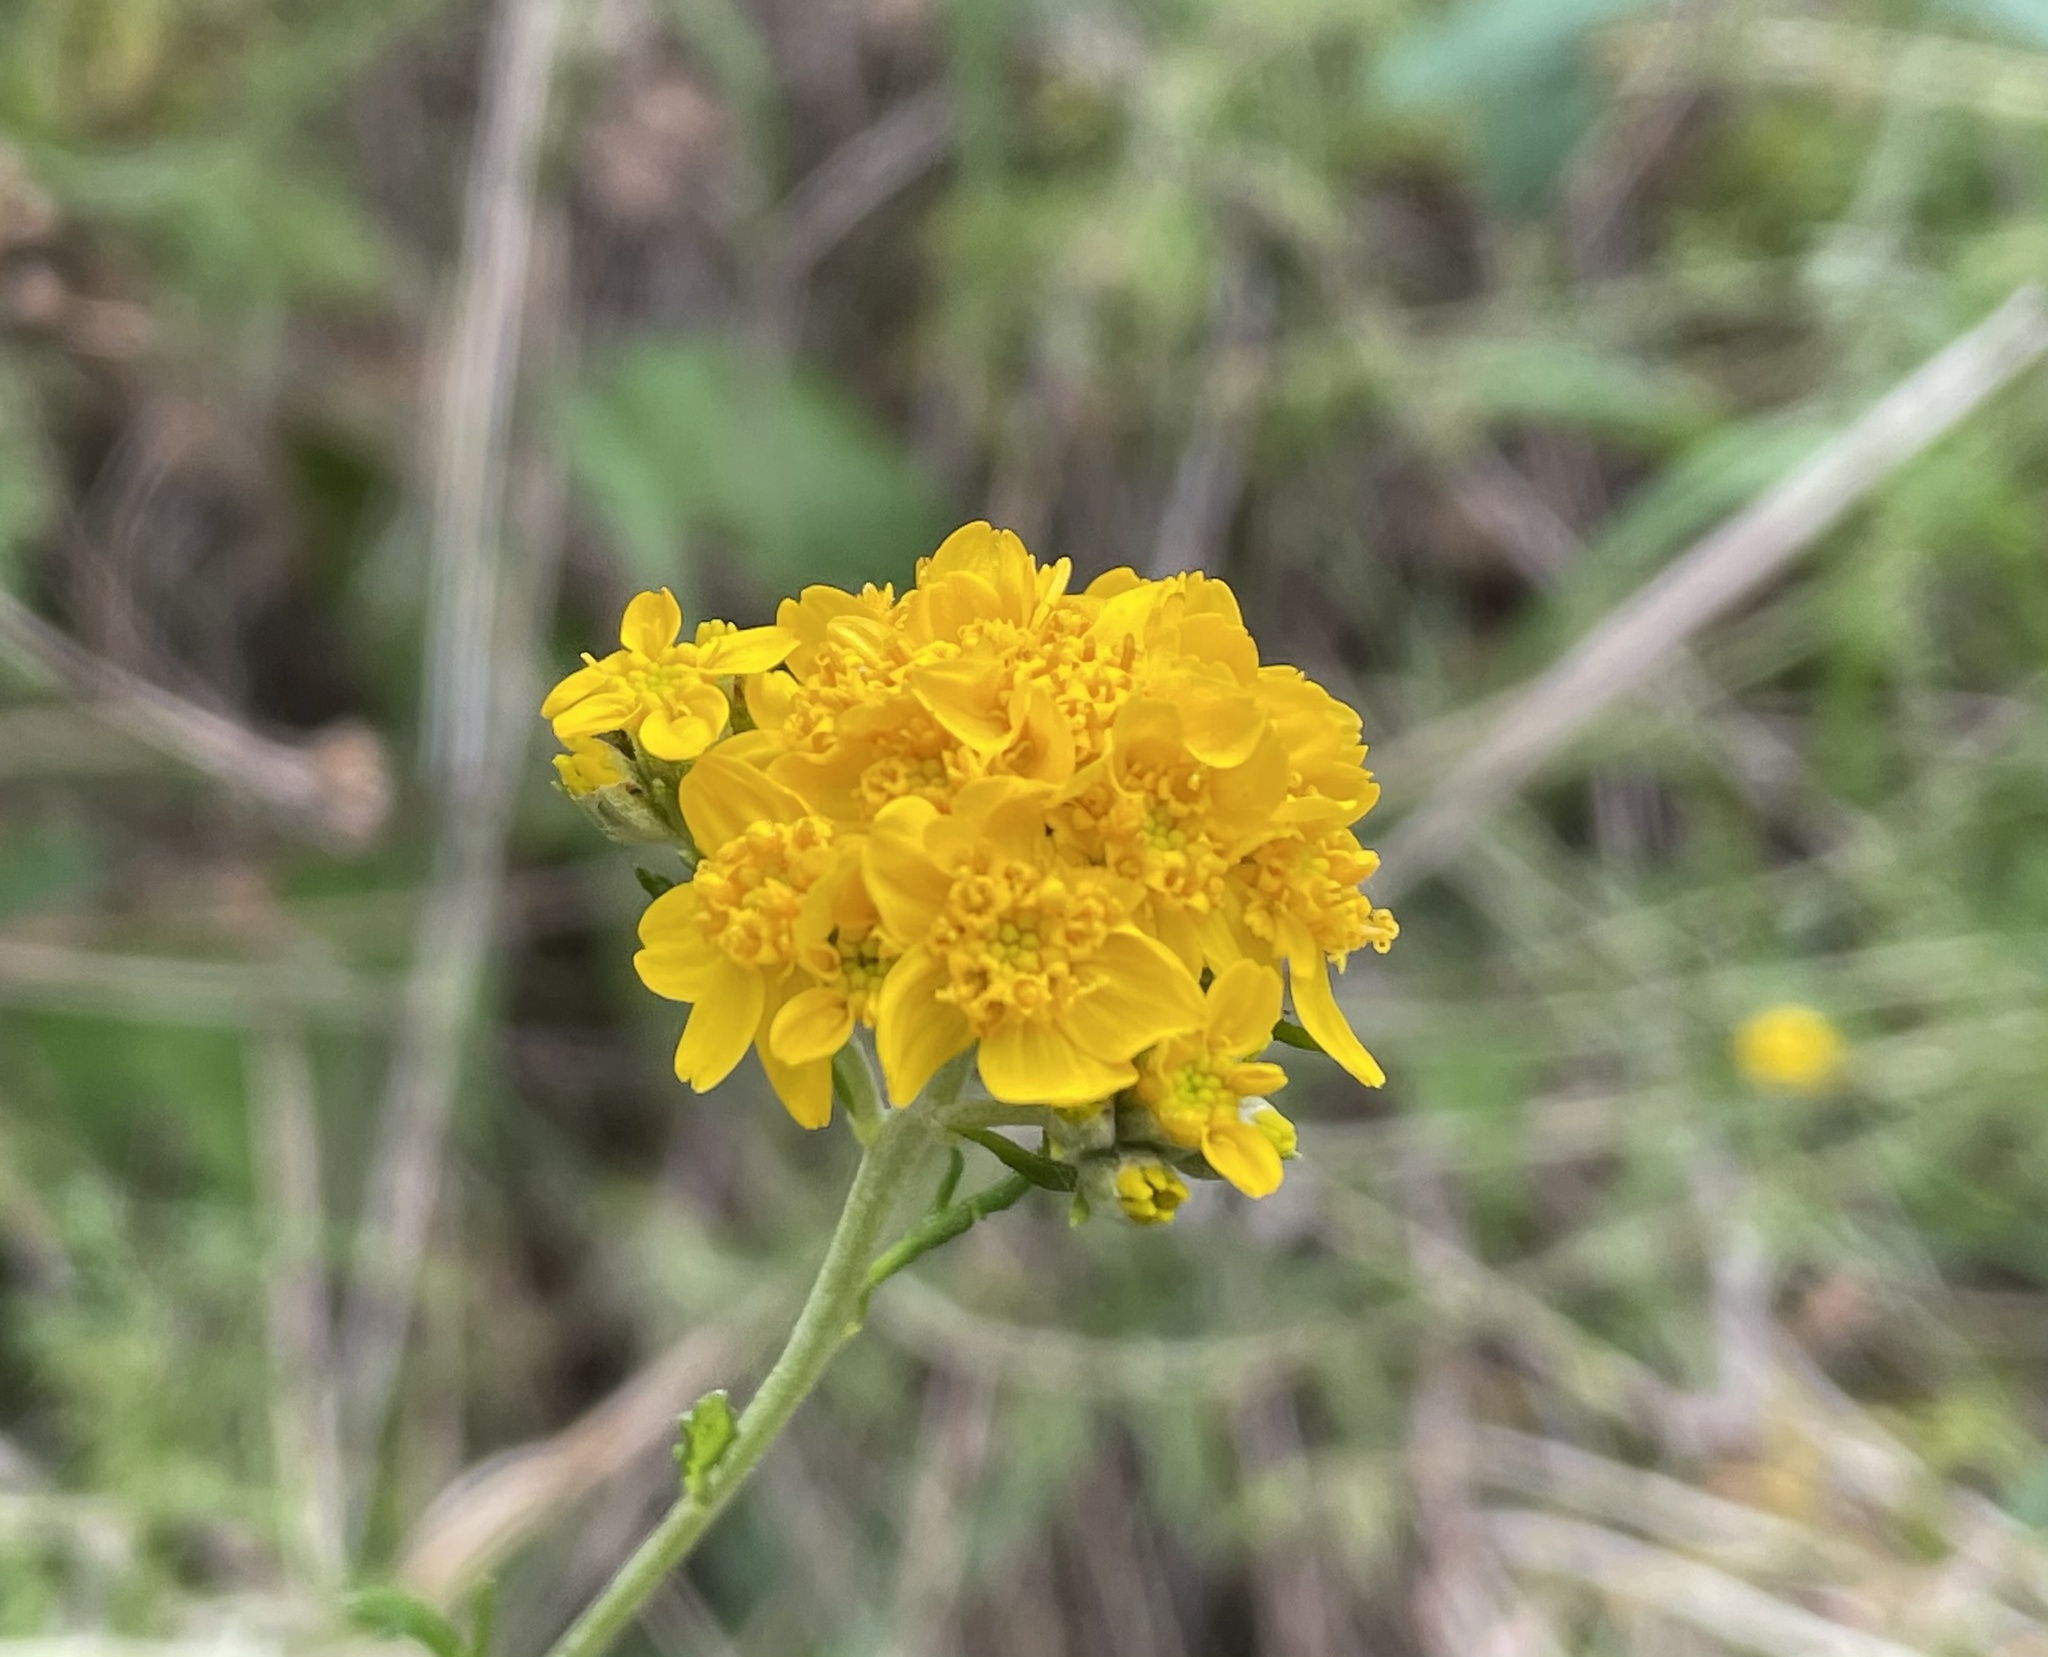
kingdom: Plantae
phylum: Tracheophyta
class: Magnoliopsida
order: Asterales
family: Asteraceae
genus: Eriophyllum
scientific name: Eriophyllum confertiflorum
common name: Golden-yarrow
